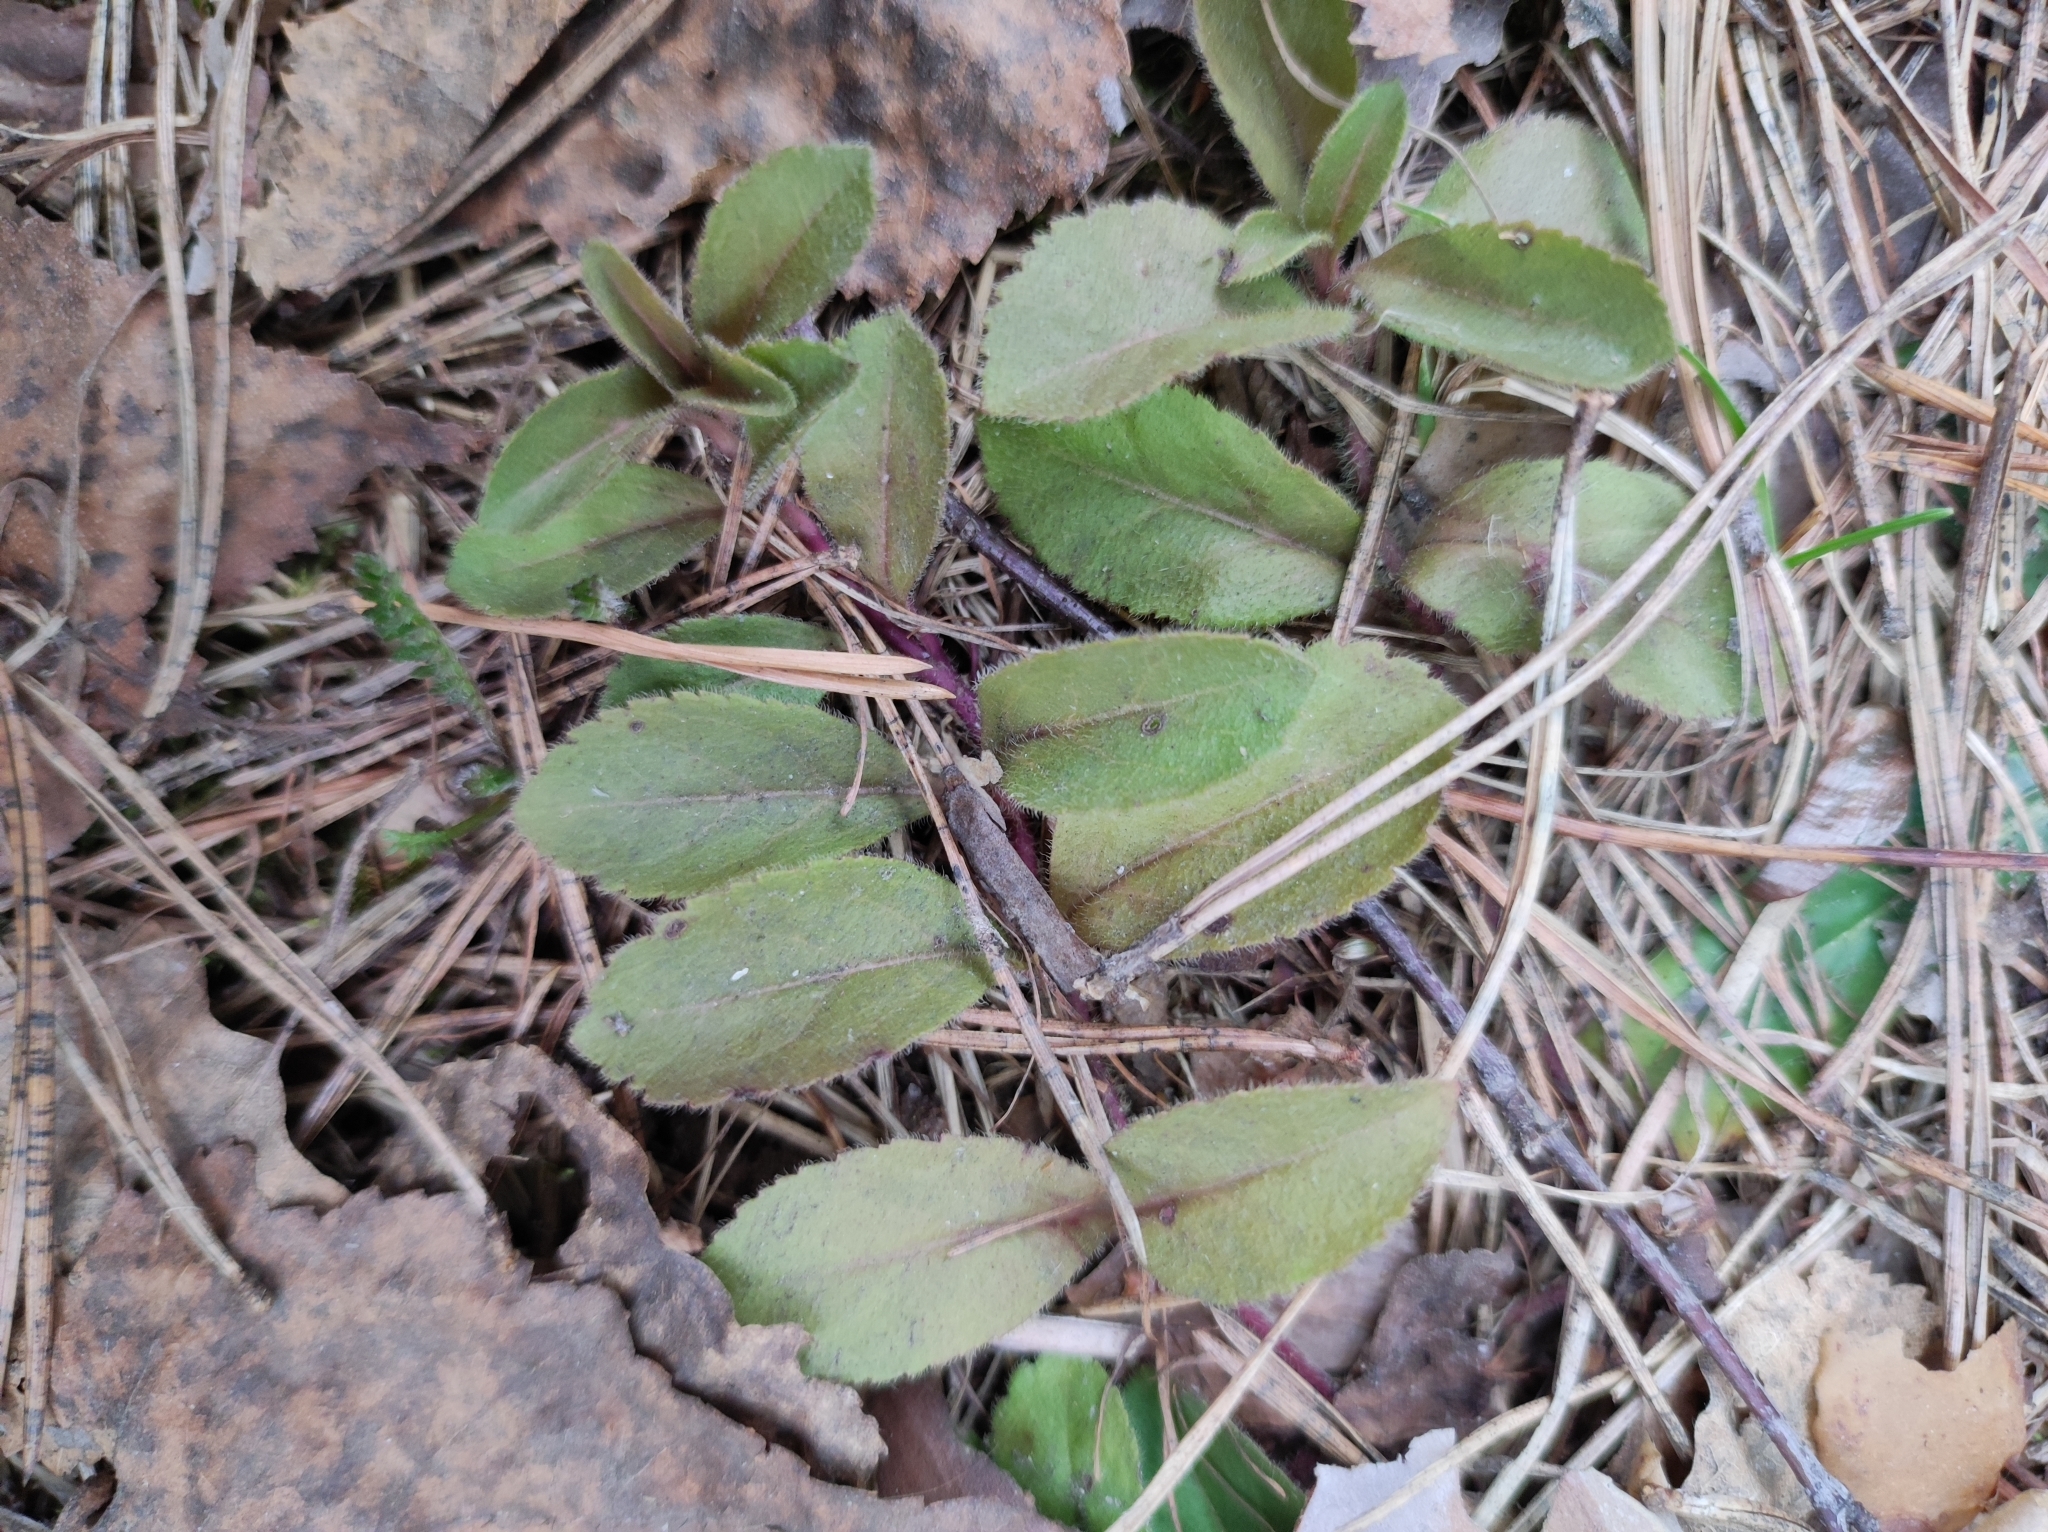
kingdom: Plantae
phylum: Tracheophyta
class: Magnoliopsida
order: Lamiales
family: Plantaginaceae
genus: Veronica
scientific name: Veronica officinalis
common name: Common speedwell
